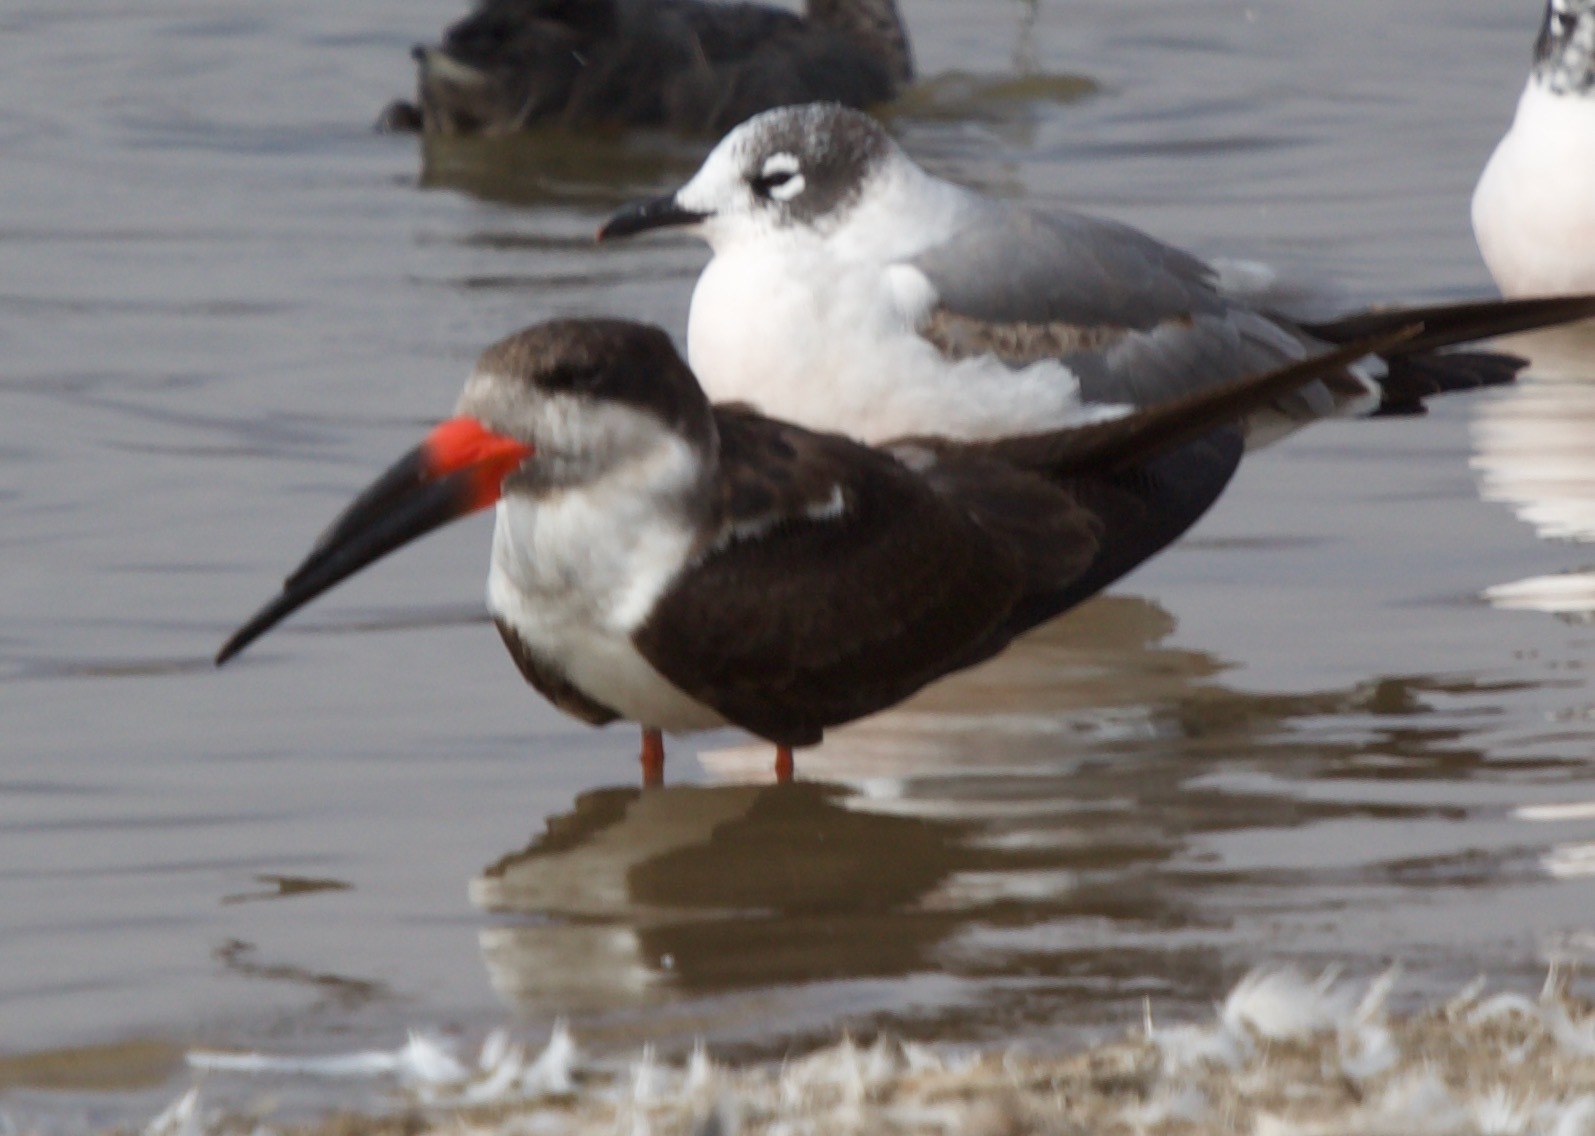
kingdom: Animalia
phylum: Chordata
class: Aves
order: Charadriiformes
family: Laridae
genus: Rynchops
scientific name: Rynchops niger
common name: Black skimmer
